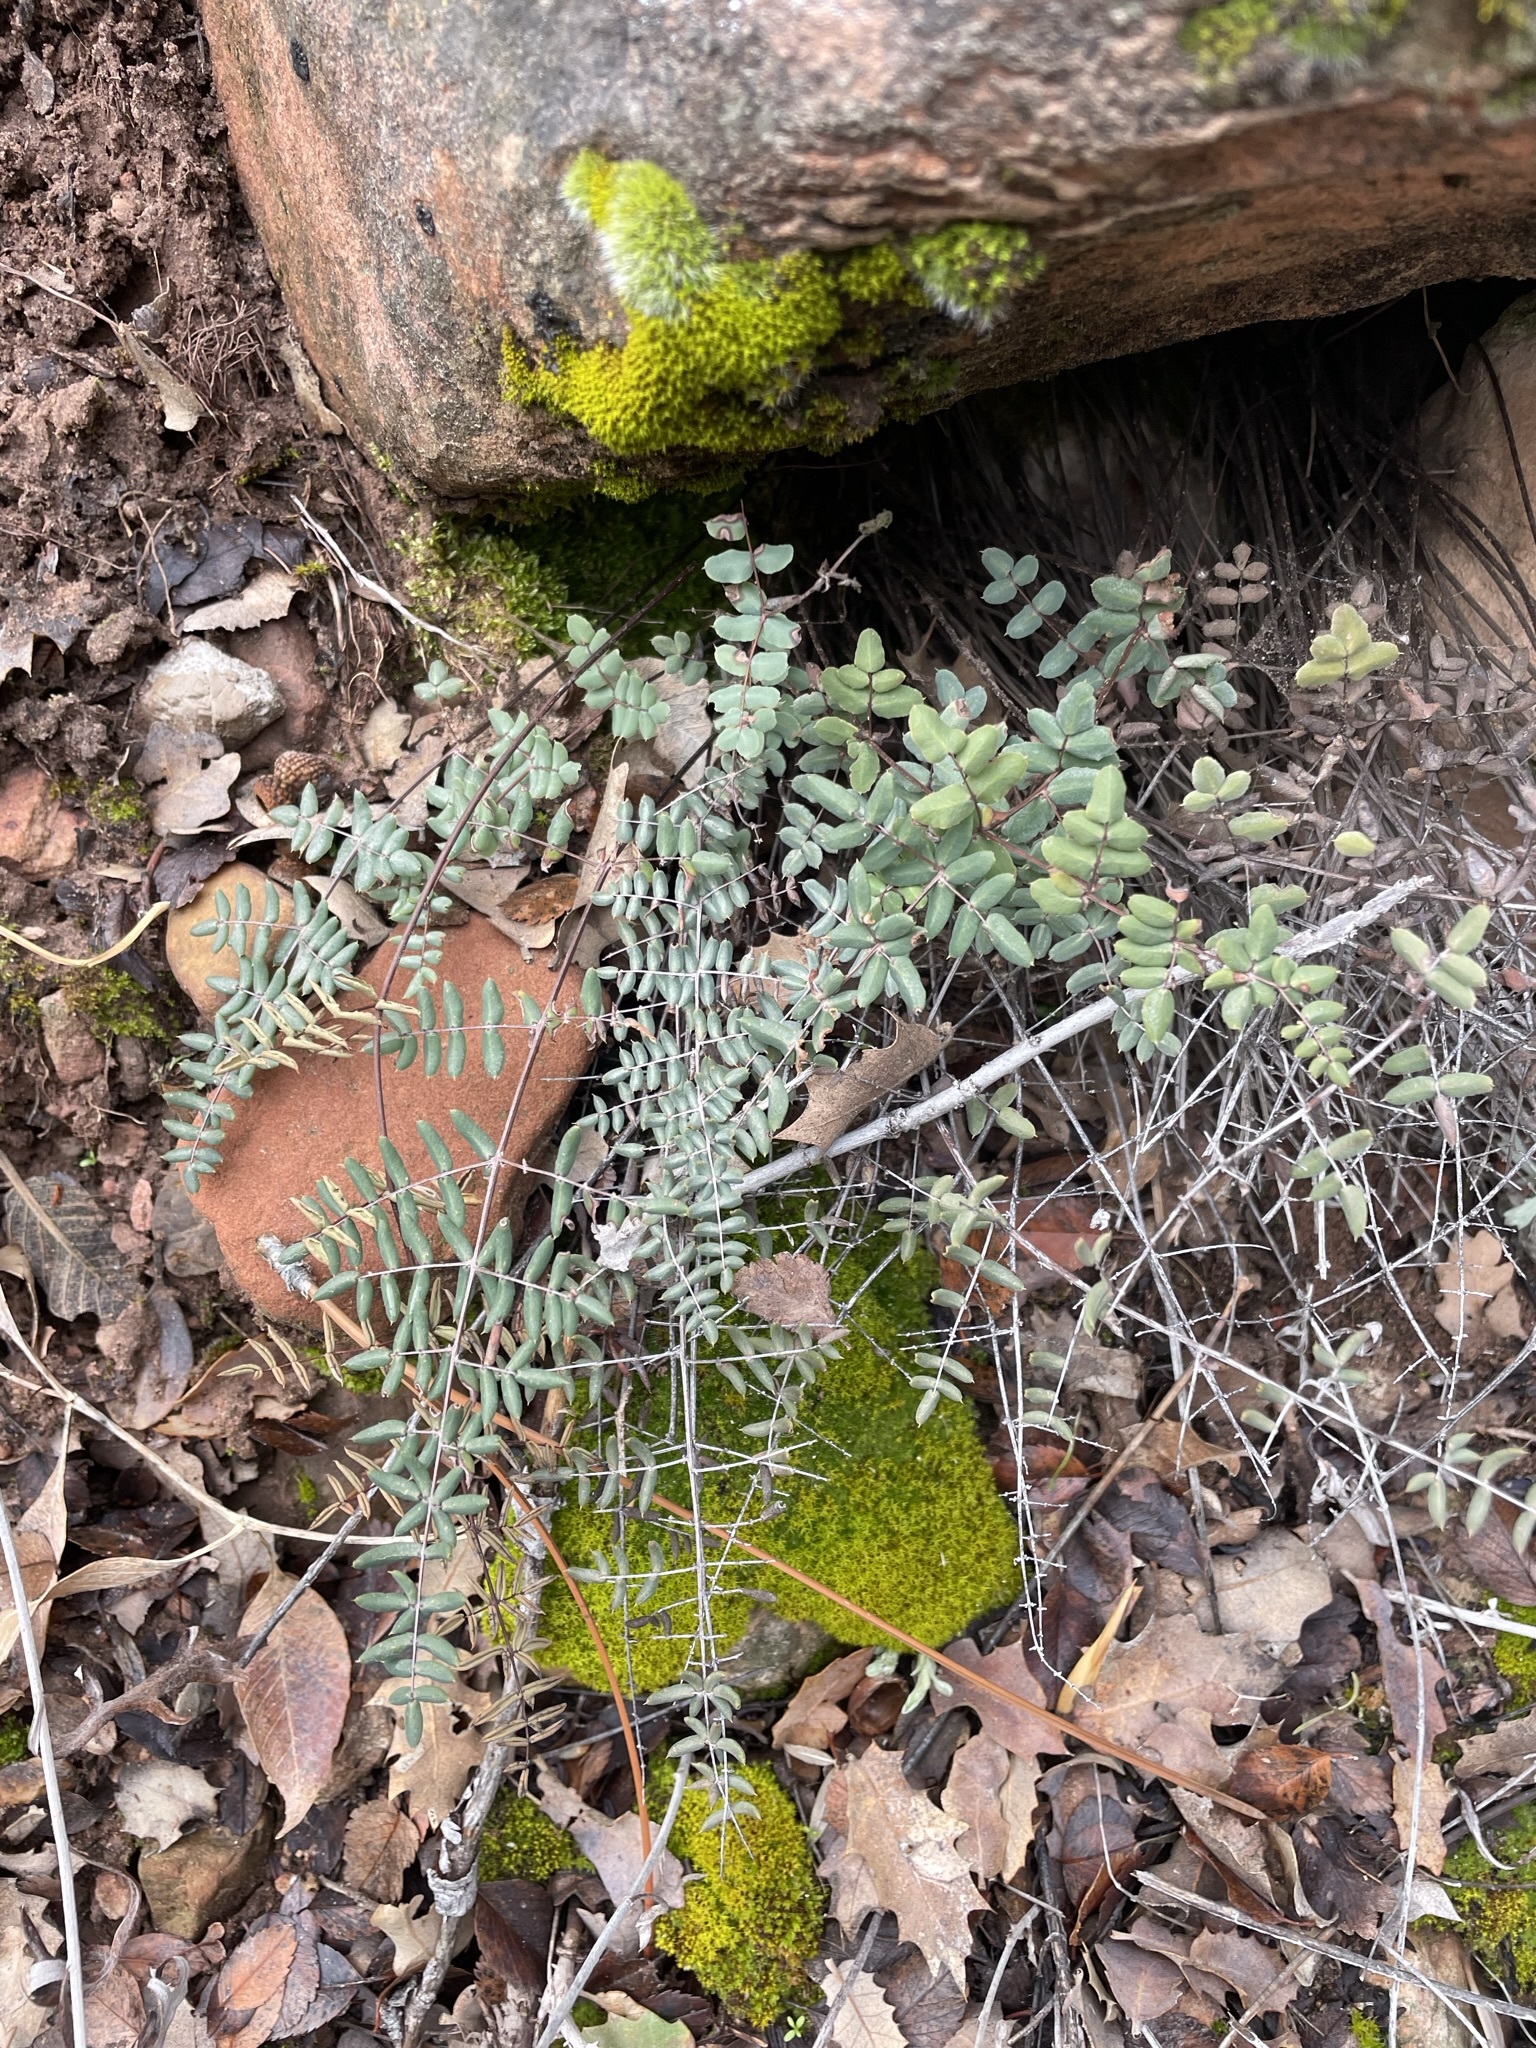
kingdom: Plantae
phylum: Tracheophyta
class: Polypodiopsida
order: Polypodiales
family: Pteridaceae
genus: Pellaea
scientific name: Pellaea truncata
